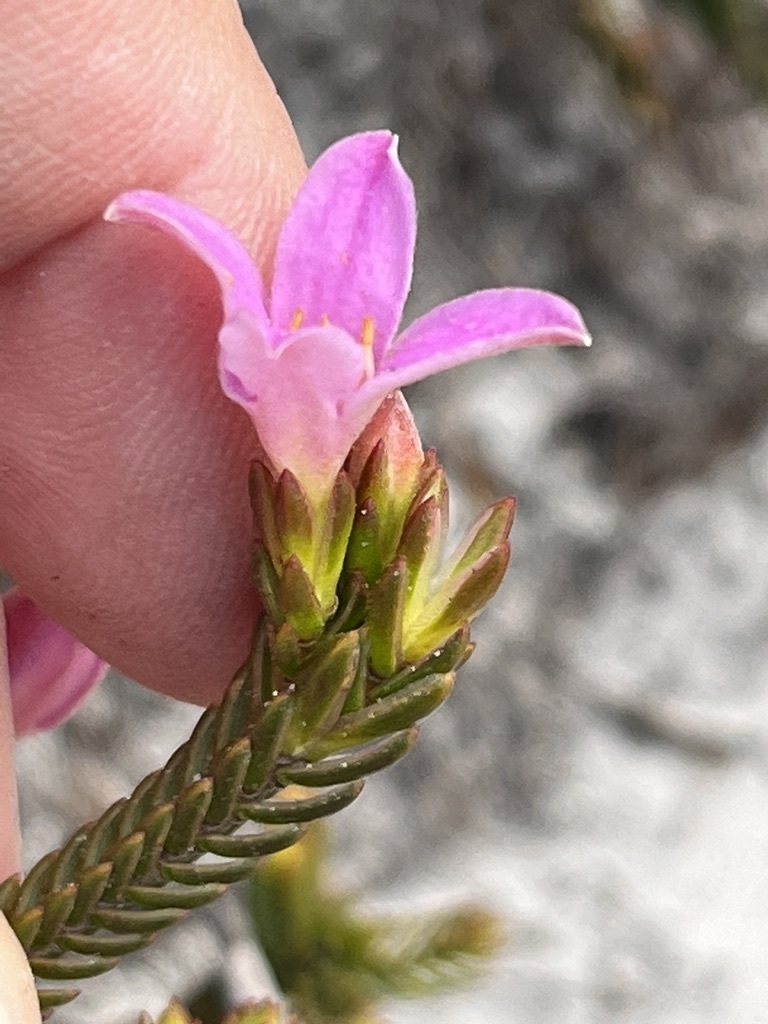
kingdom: Plantae
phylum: Tracheophyta
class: Magnoliopsida
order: Malvales
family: Thymelaeaceae
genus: Lachnaea
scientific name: Lachnaea grandiflora
